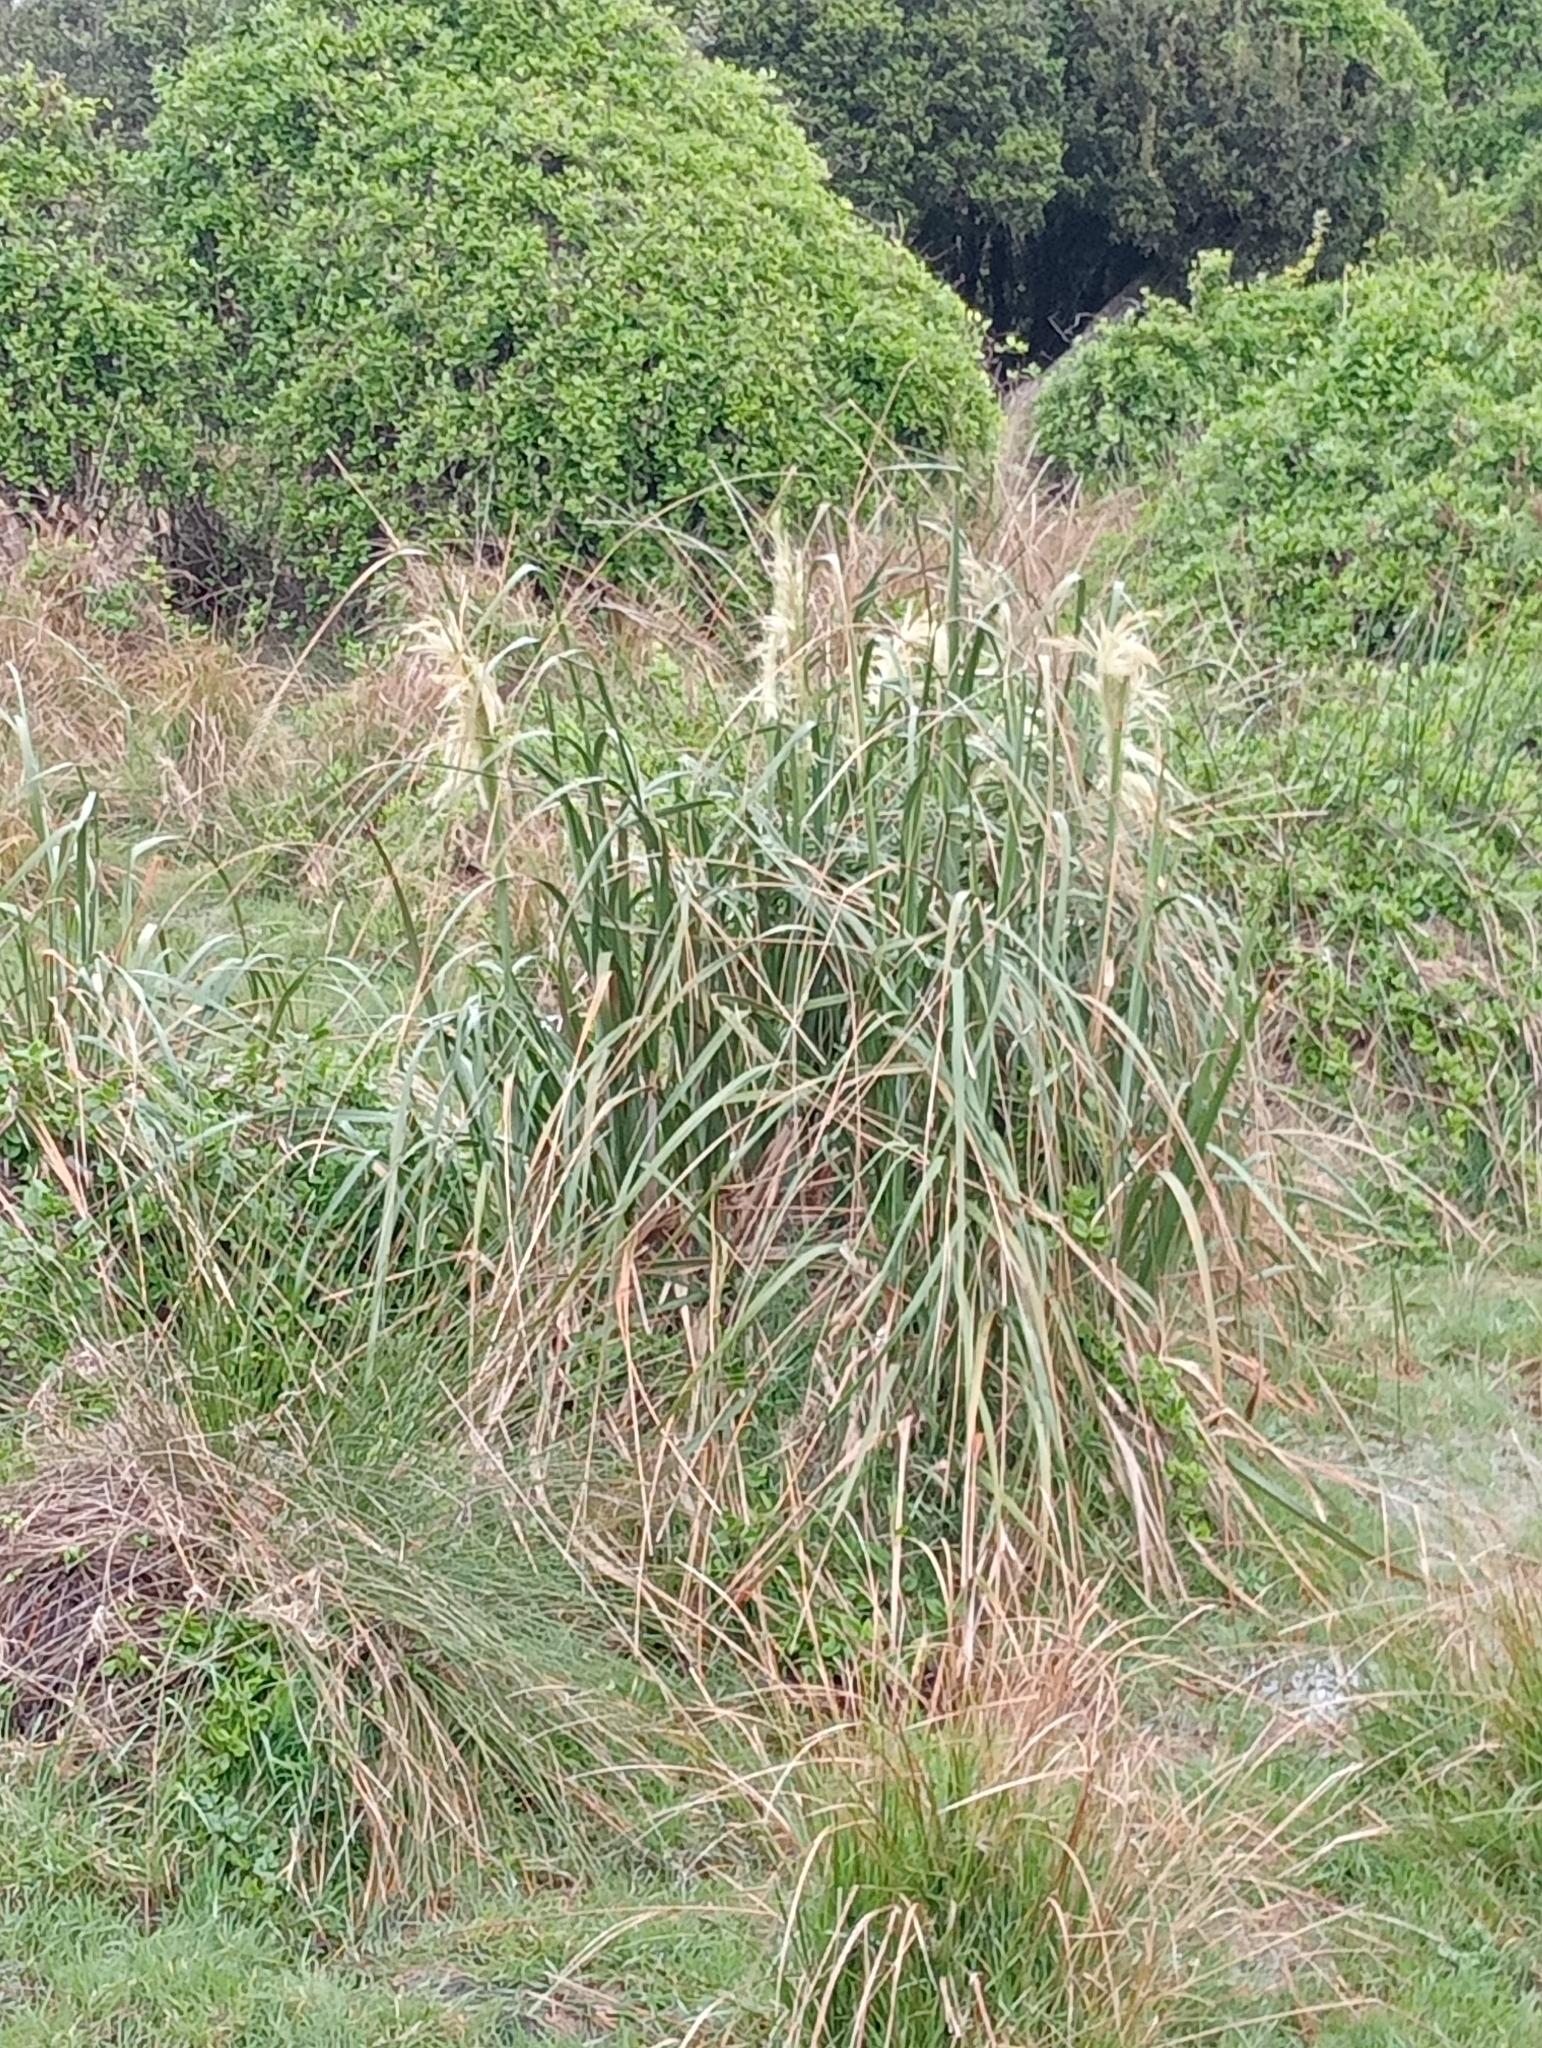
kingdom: Plantae
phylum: Tracheophyta
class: Liliopsida
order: Poales
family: Poaceae
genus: Austroderia
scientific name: Austroderia turbaria
